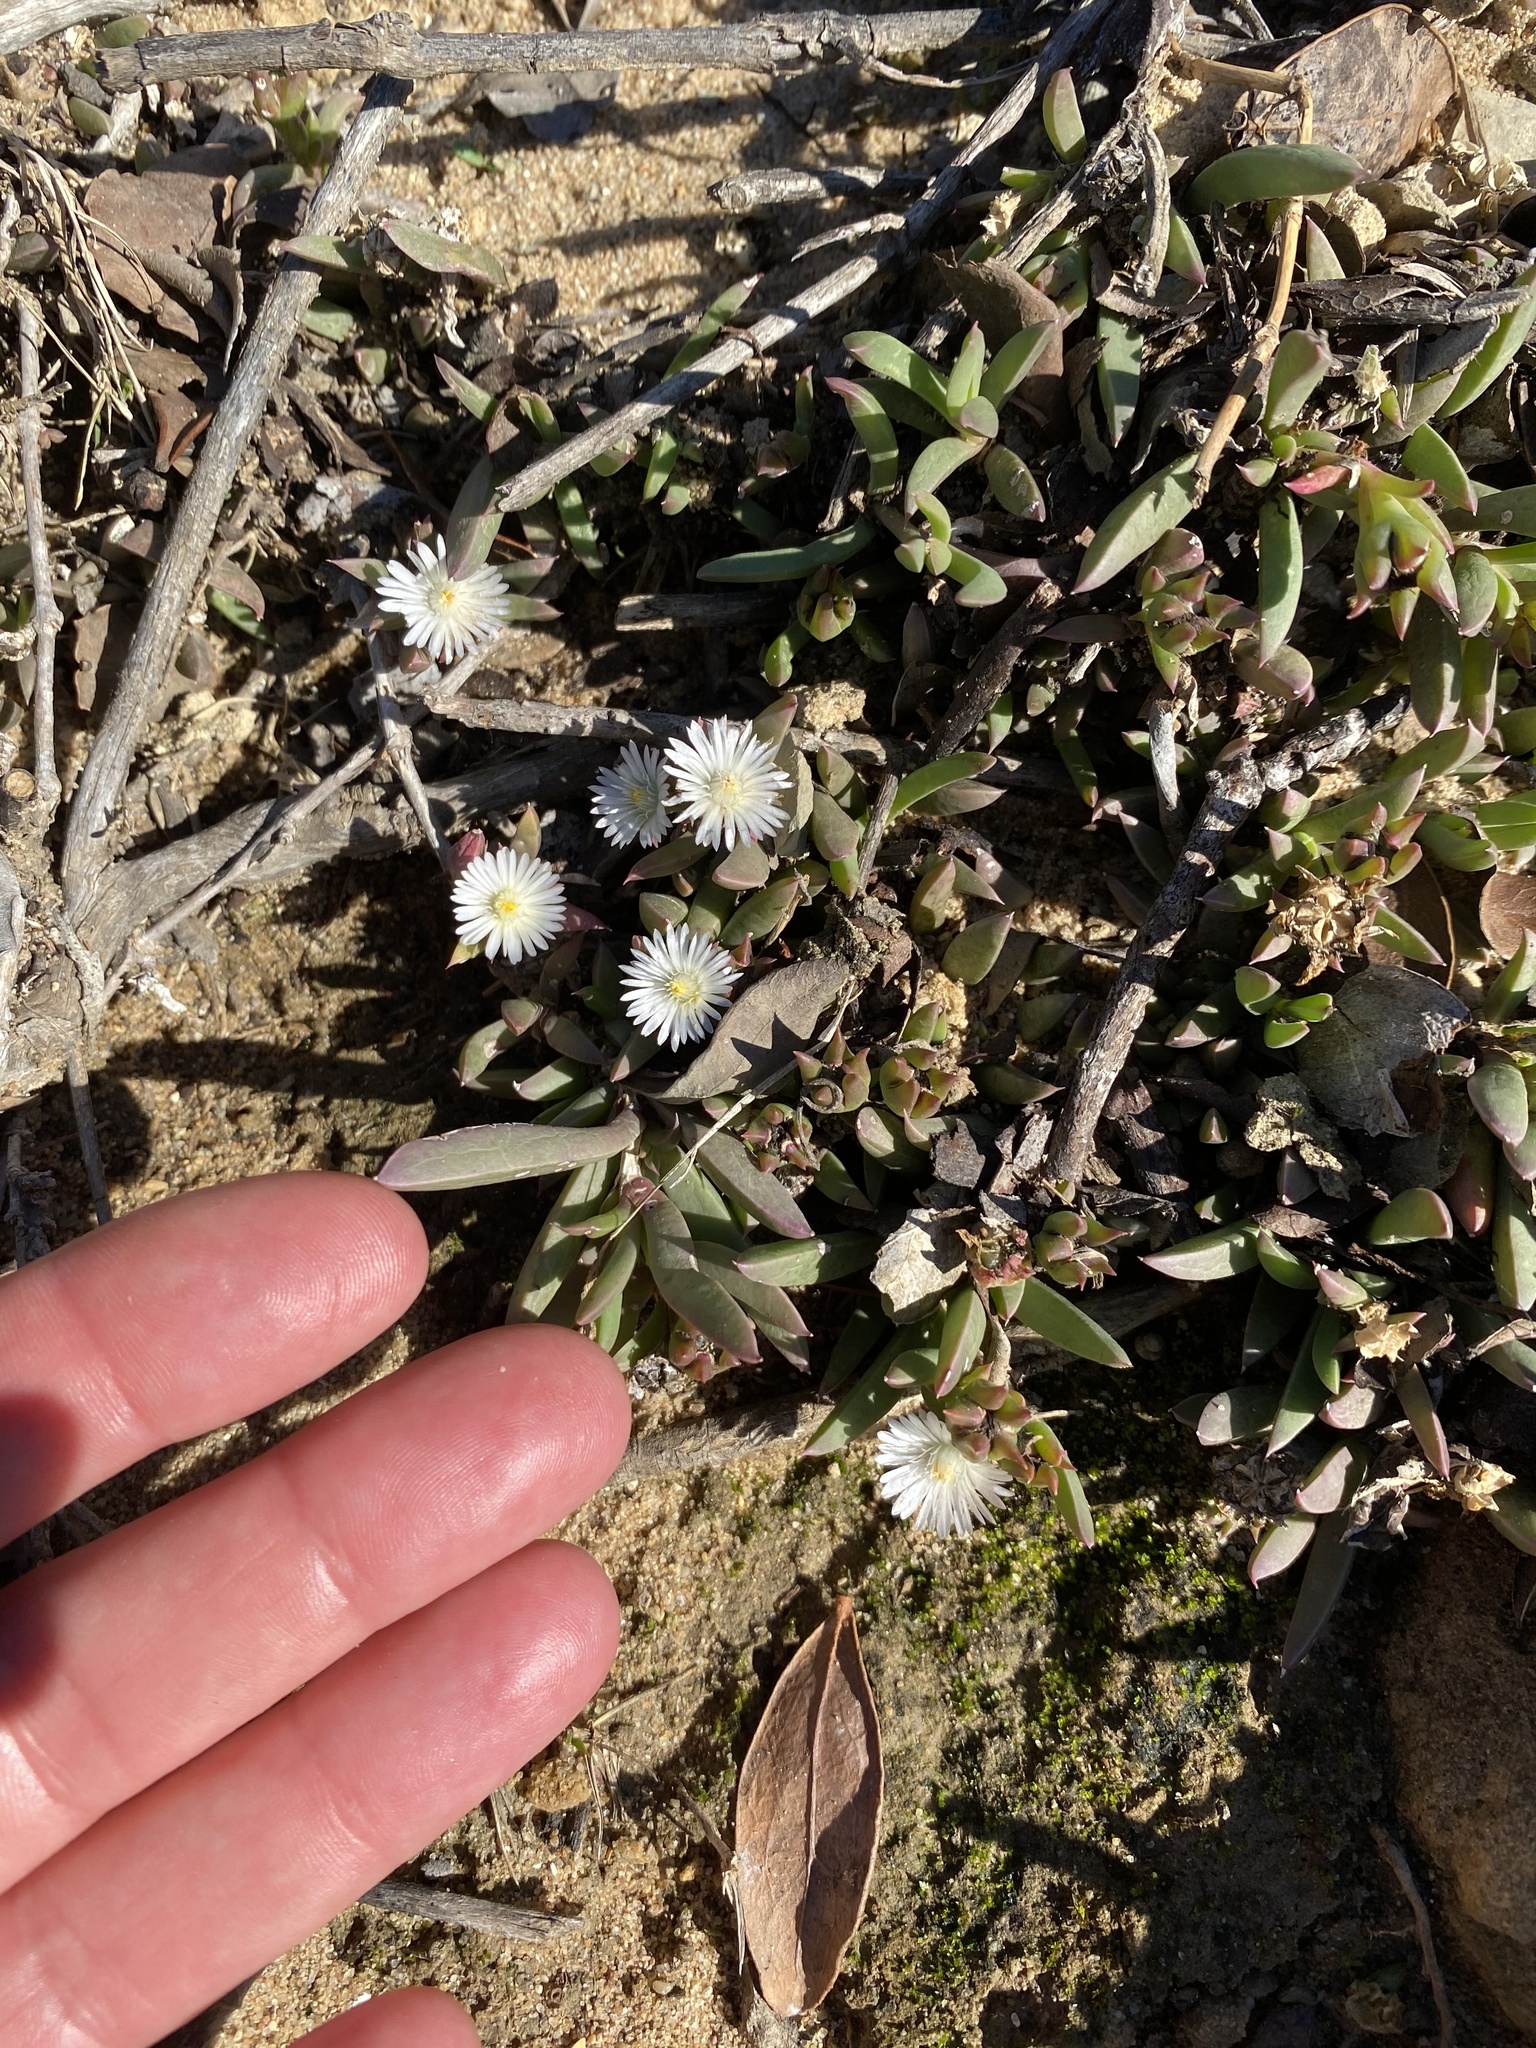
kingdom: Plantae
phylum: Tracheophyta
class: Magnoliopsida
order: Caryophyllales
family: Aizoaceae
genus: Delosperma
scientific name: Delosperma litorale
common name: Seaside delosperma
